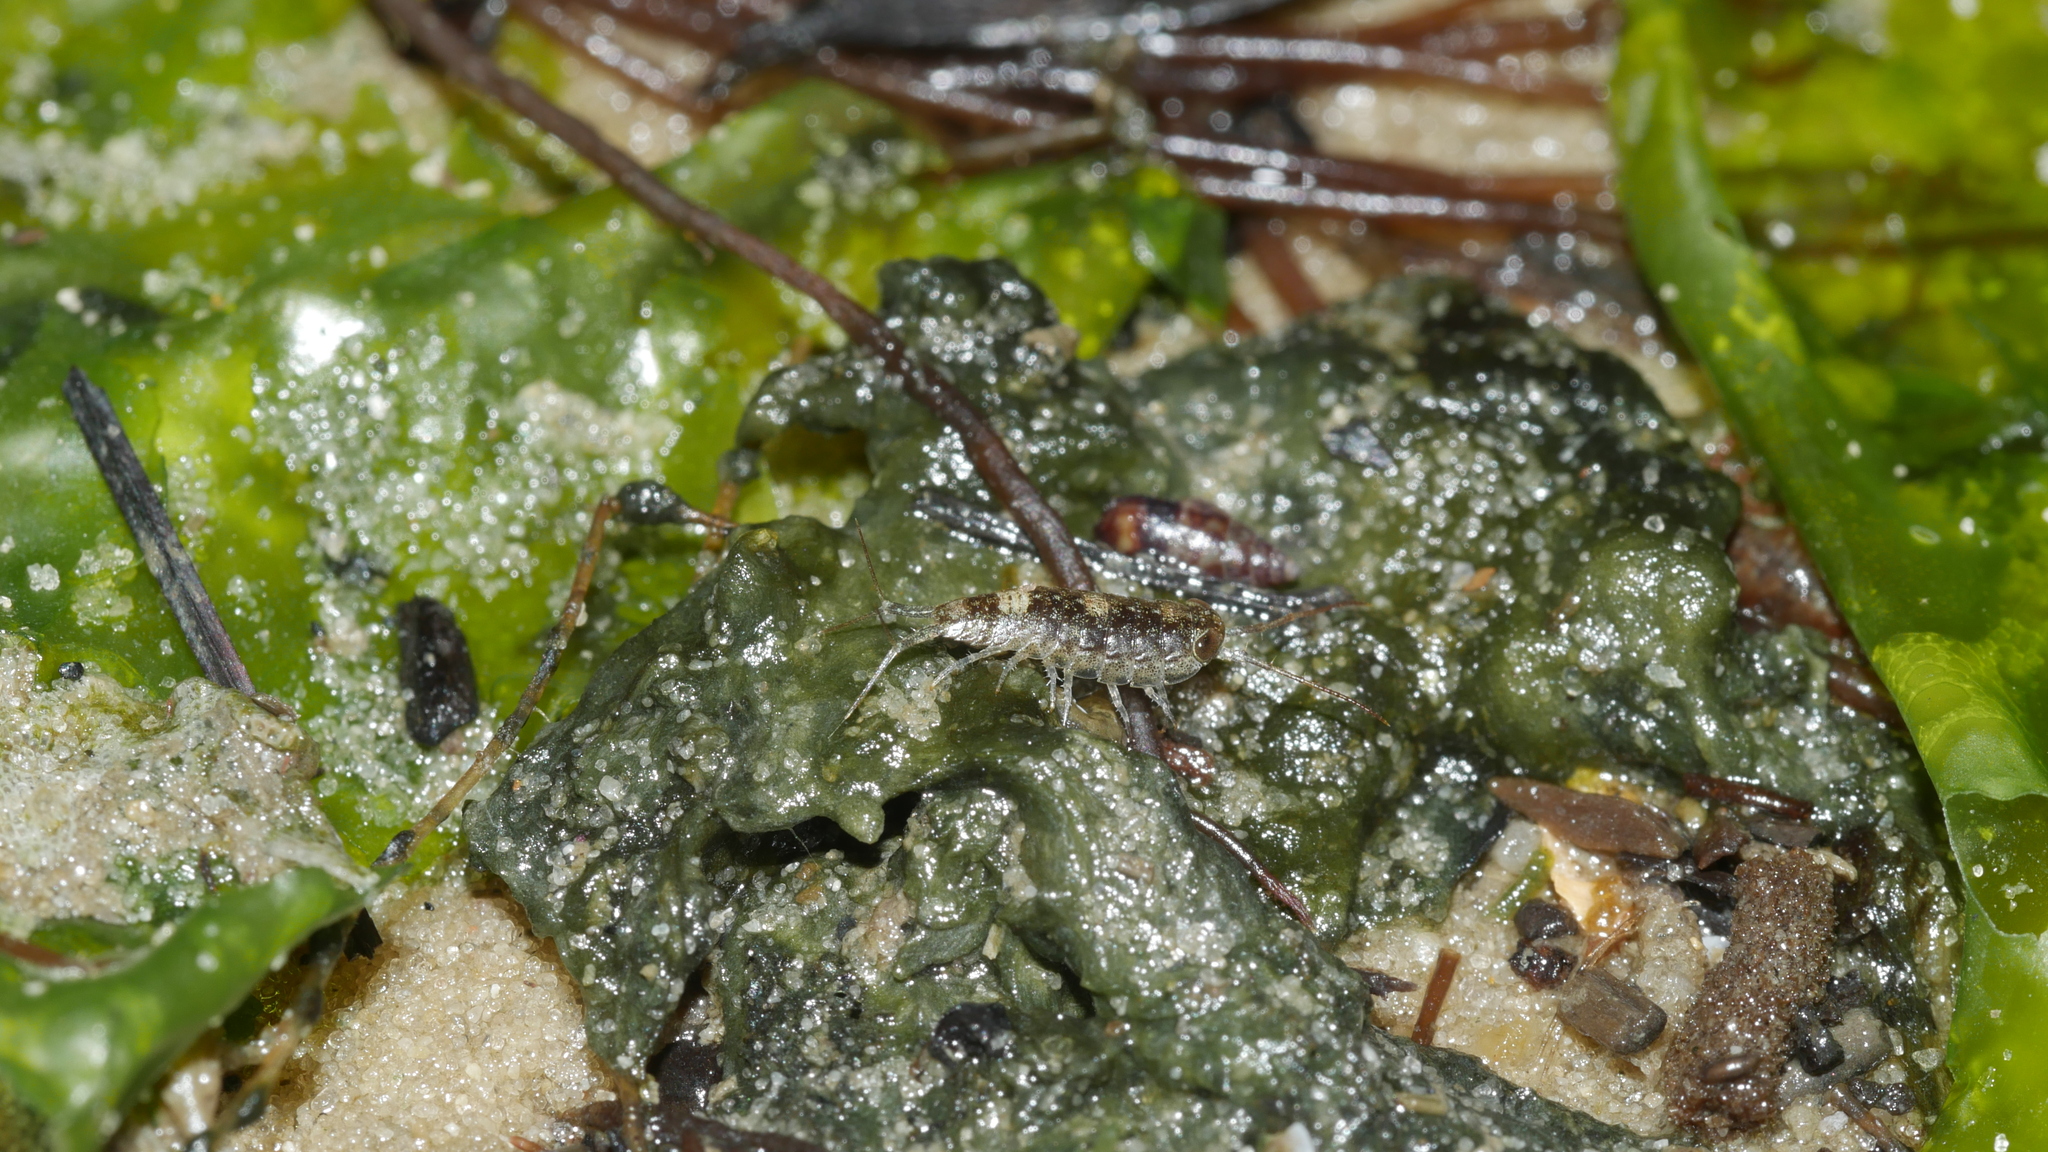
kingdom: Animalia
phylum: Arthropoda
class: Malacostraca
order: Isopoda
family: Ligiidae
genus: Ligia
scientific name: Ligia exotica
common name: Wharf roach
